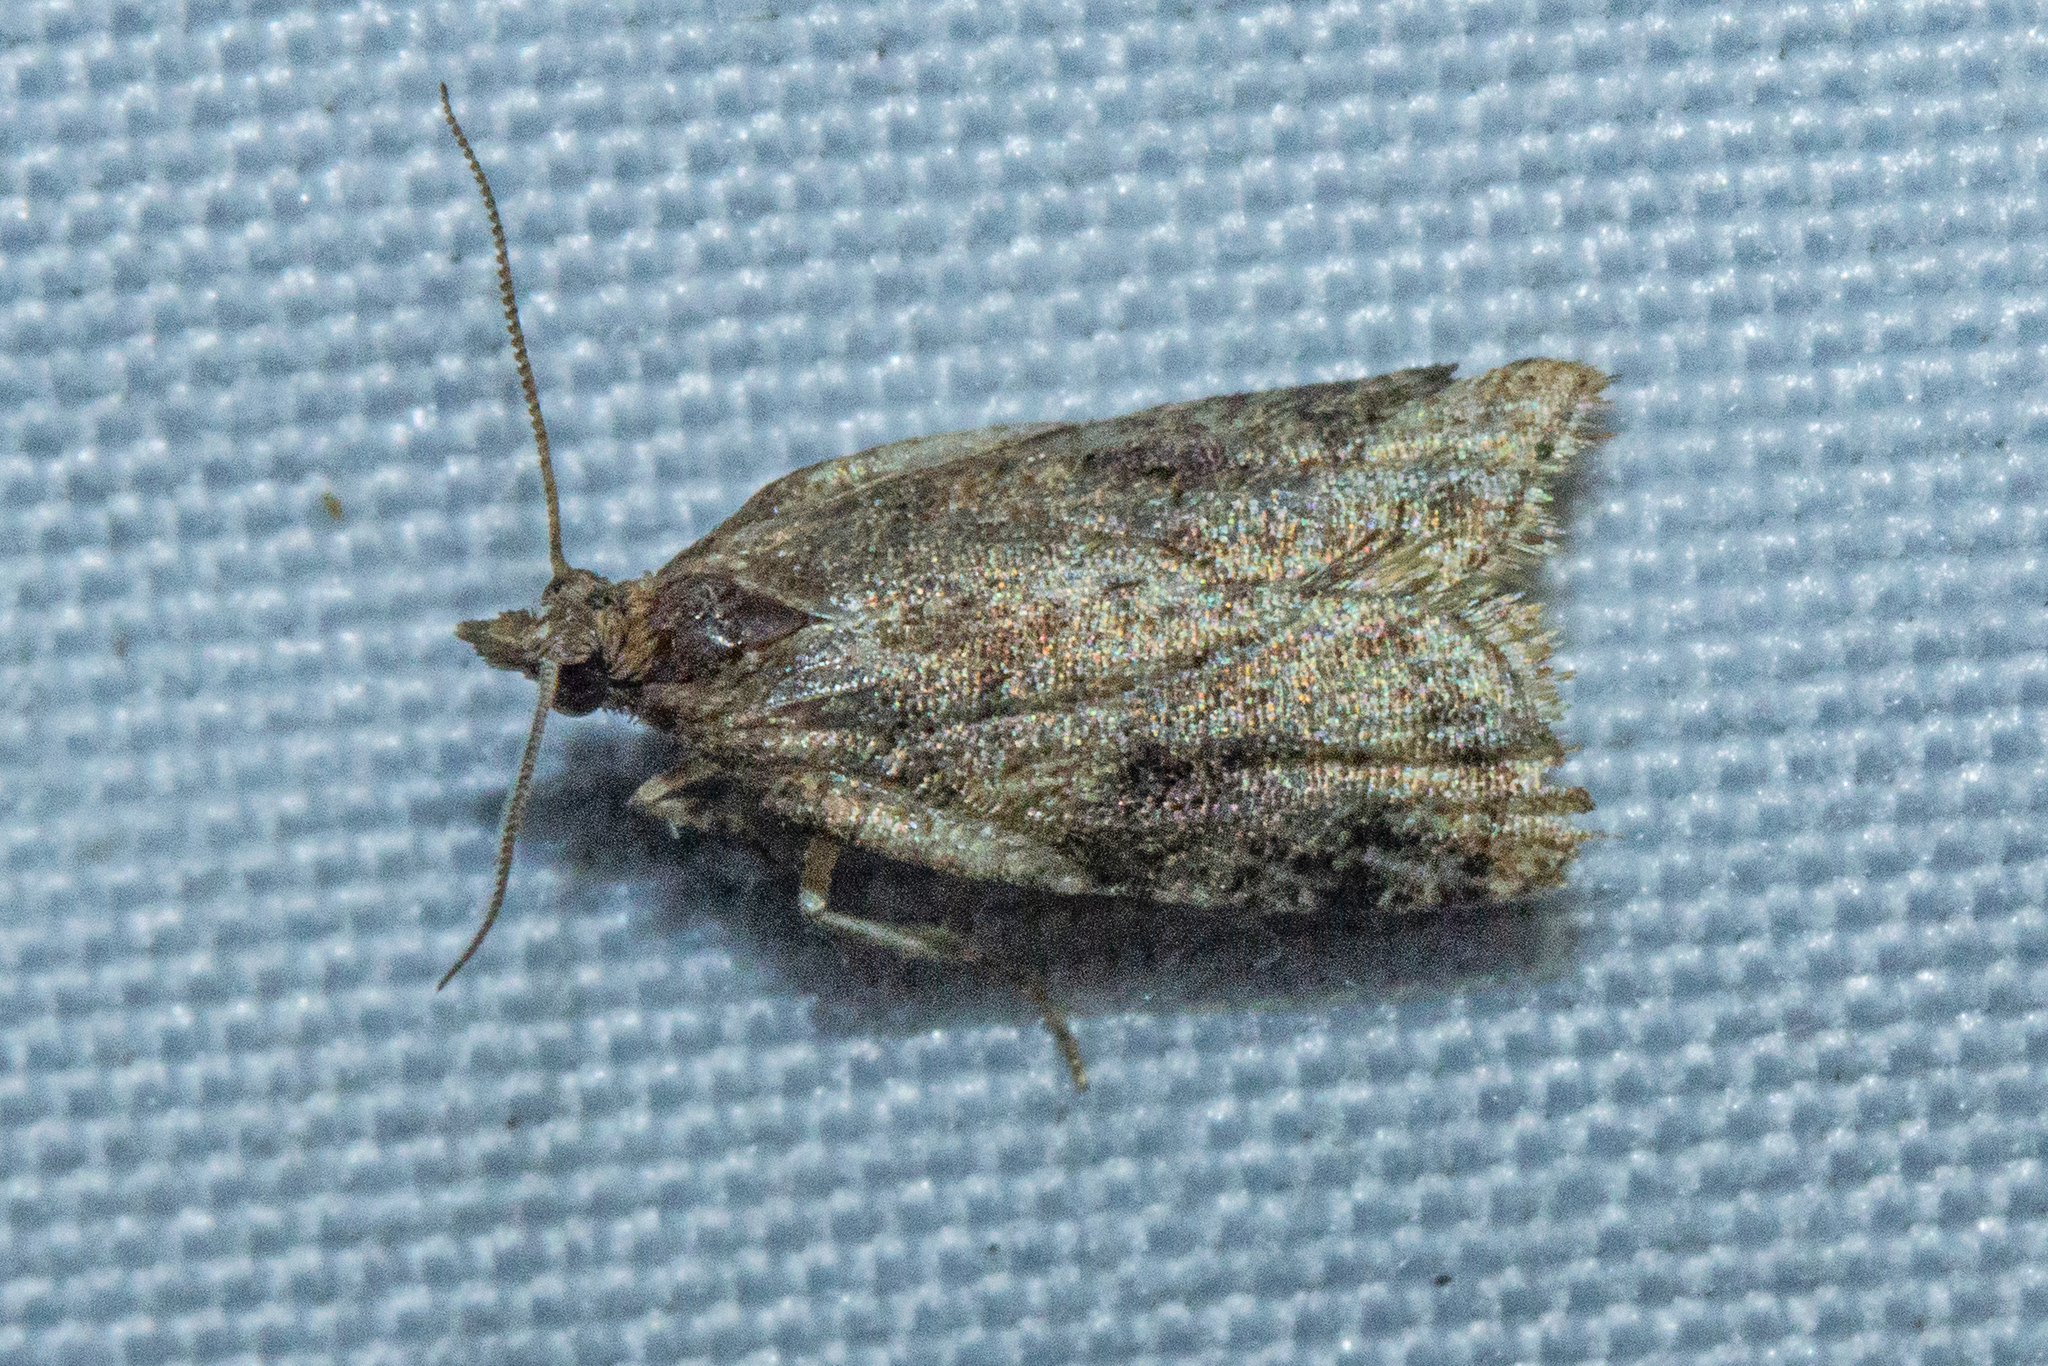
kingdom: Animalia
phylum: Arthropoda
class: Insecta
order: Lepidoptera
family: Tortricidae
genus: Capua
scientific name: Capua semiferana
